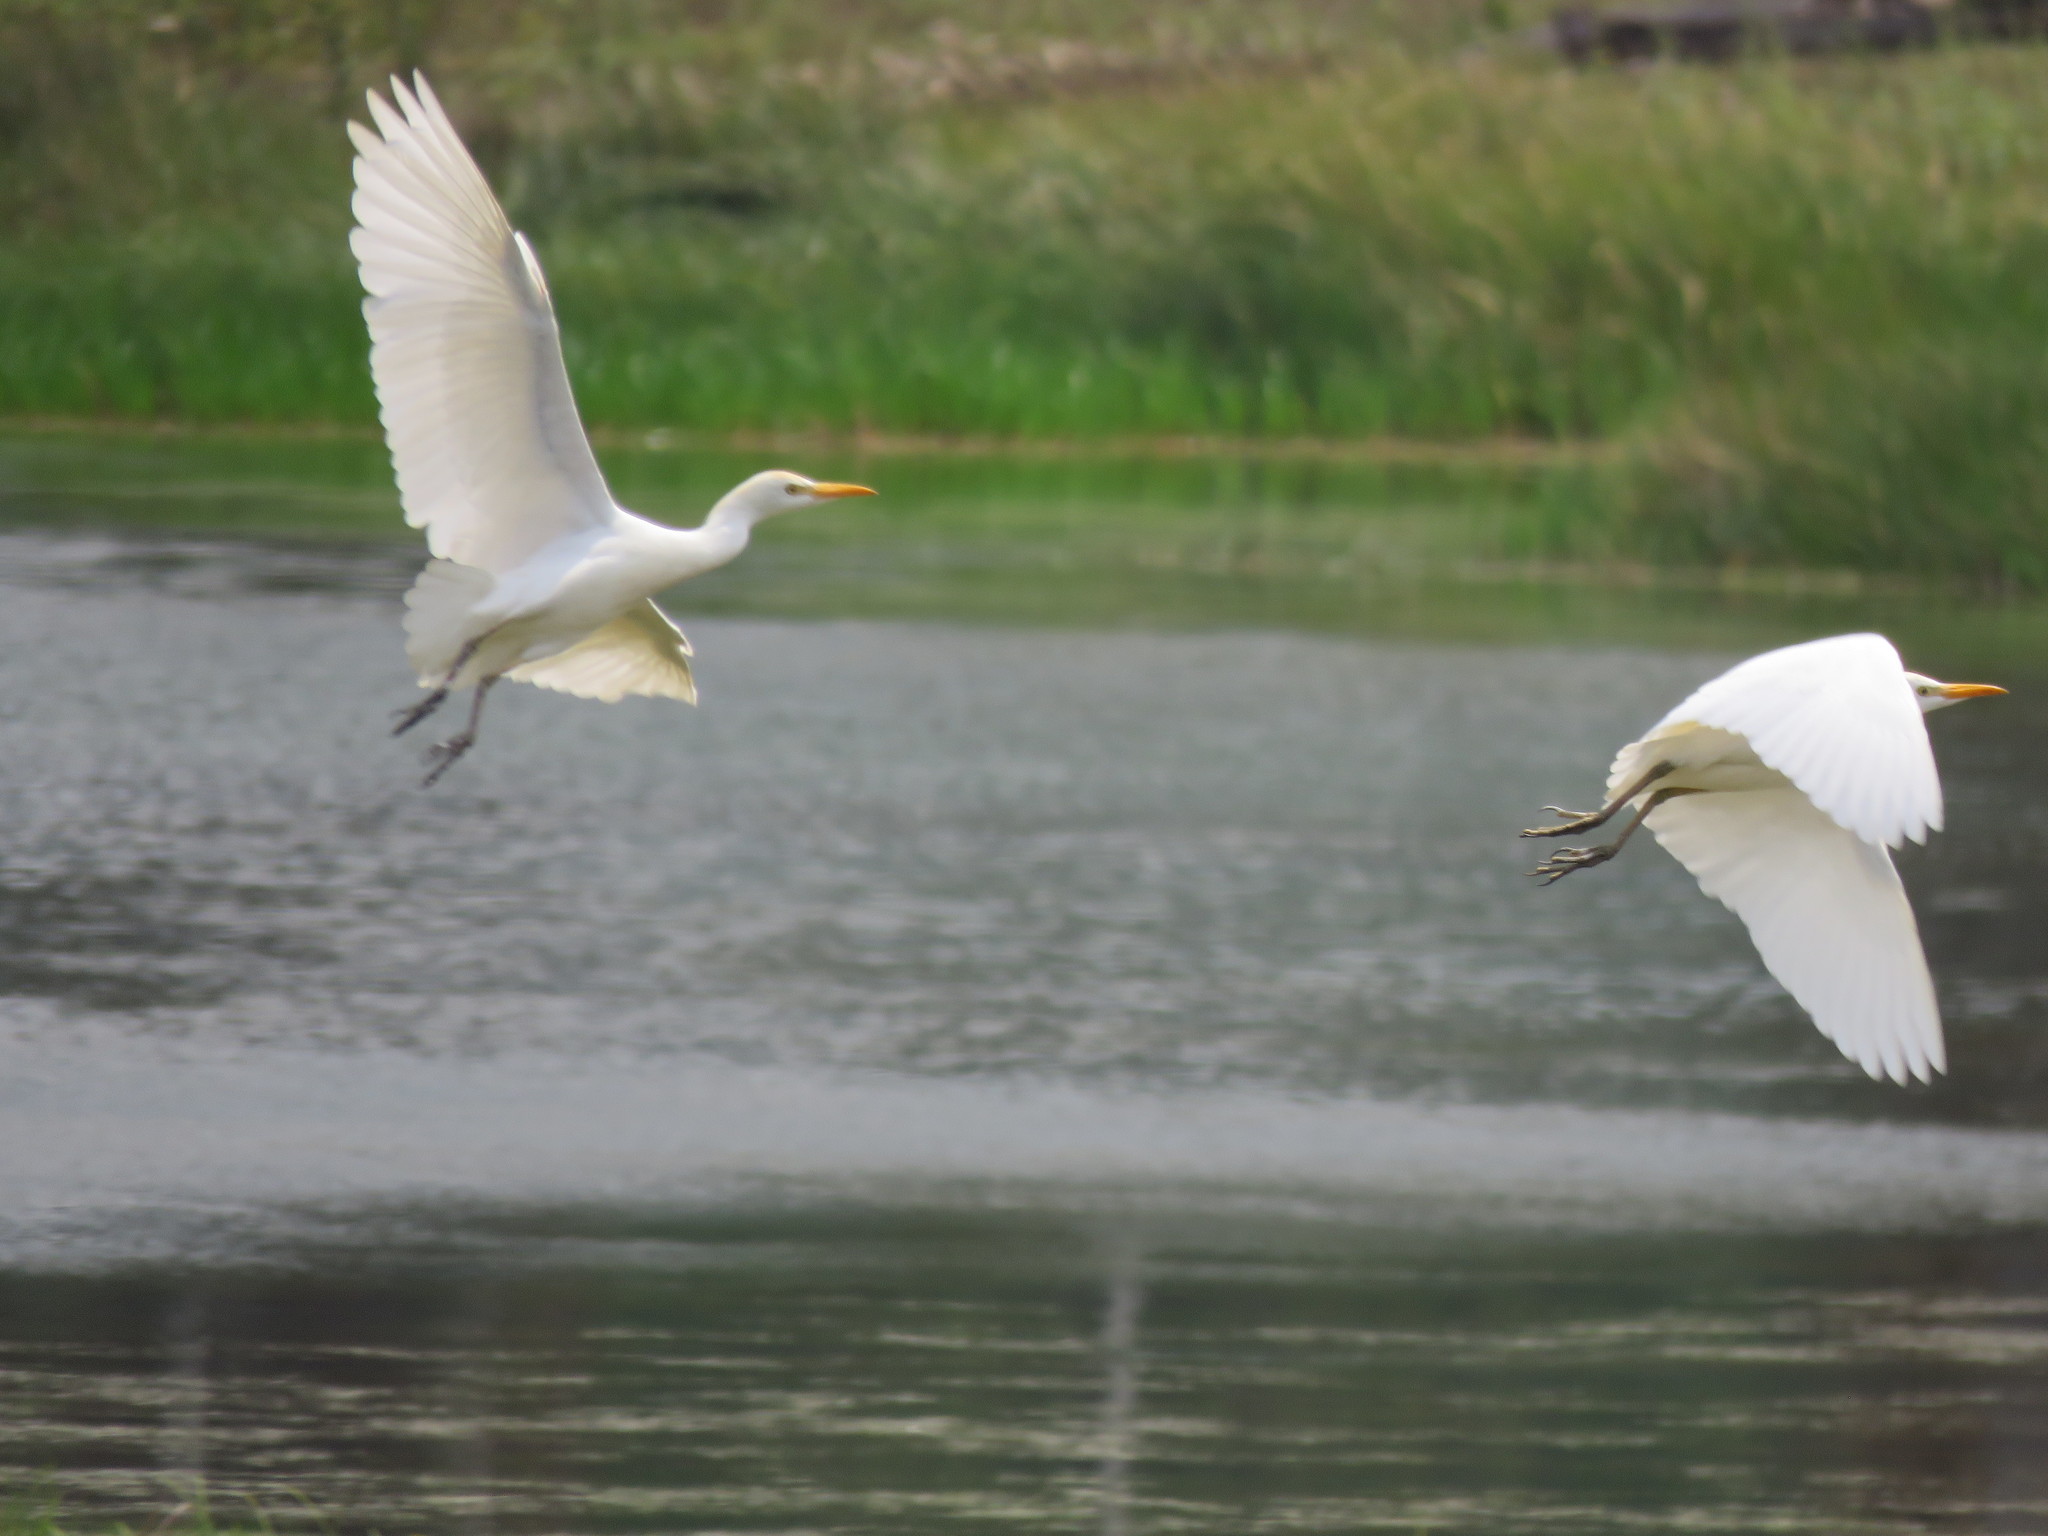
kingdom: Animalia
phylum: Chordata
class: Aves
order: Pelecaniformes
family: Ardeidae
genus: Bubulcus
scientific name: Bubulcus ibis
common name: Cattle egret
